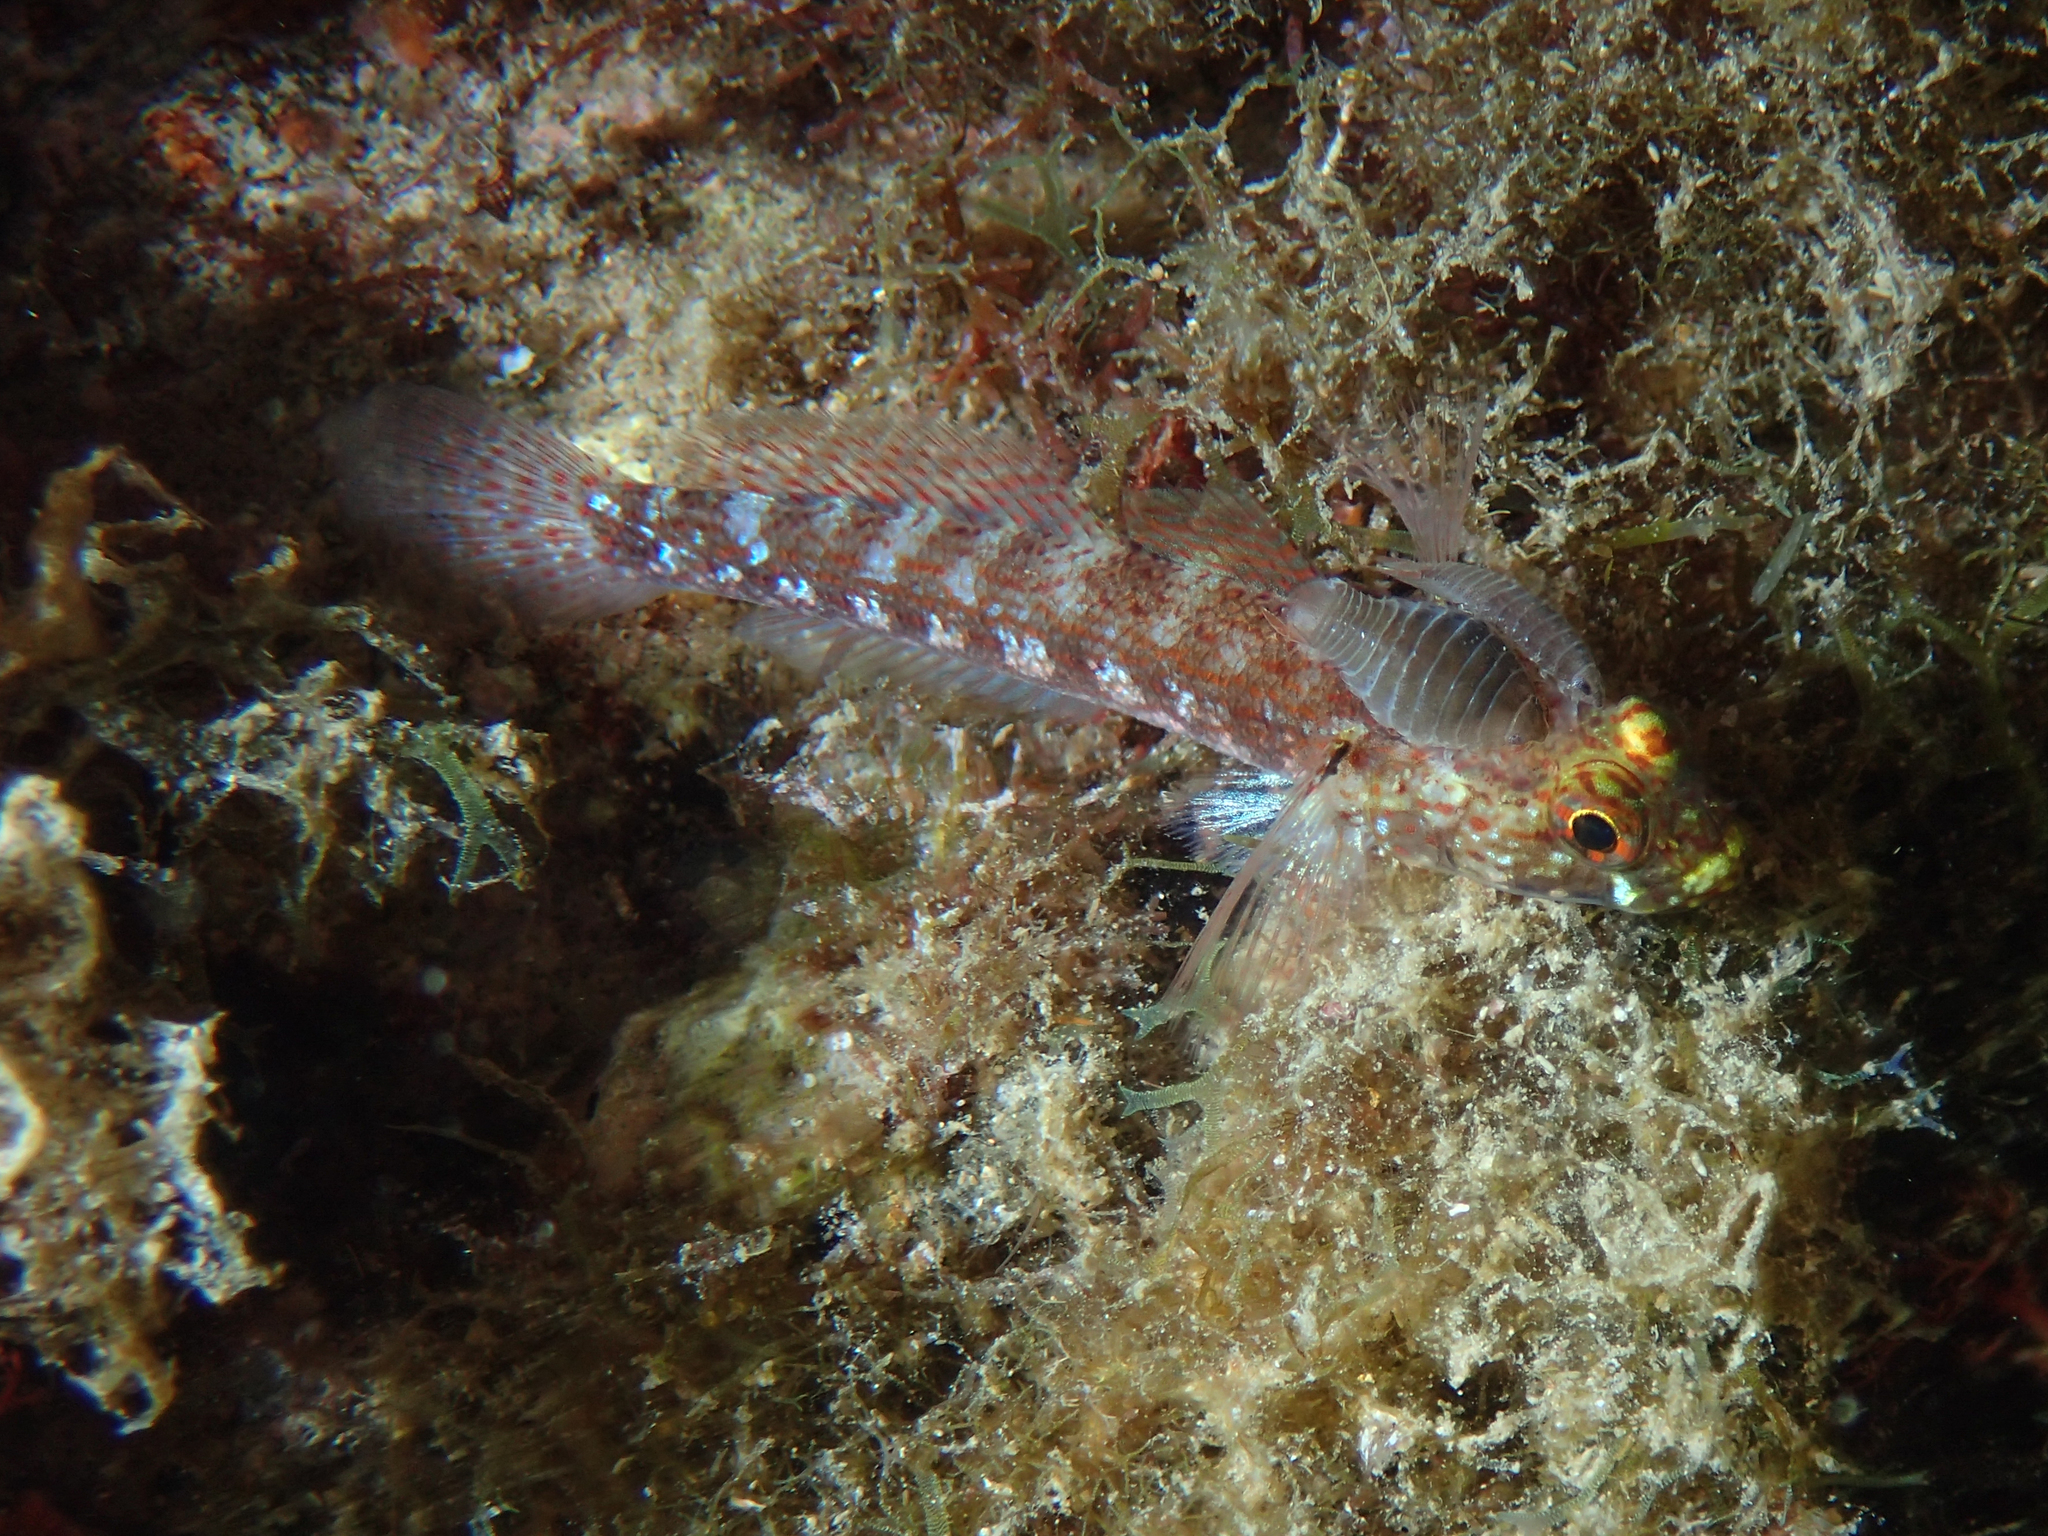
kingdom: Animalia
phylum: Chordata
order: Perciformes
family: Gobiidae
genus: Gobius
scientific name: Gobius xanthocephalus
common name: Golden goby
